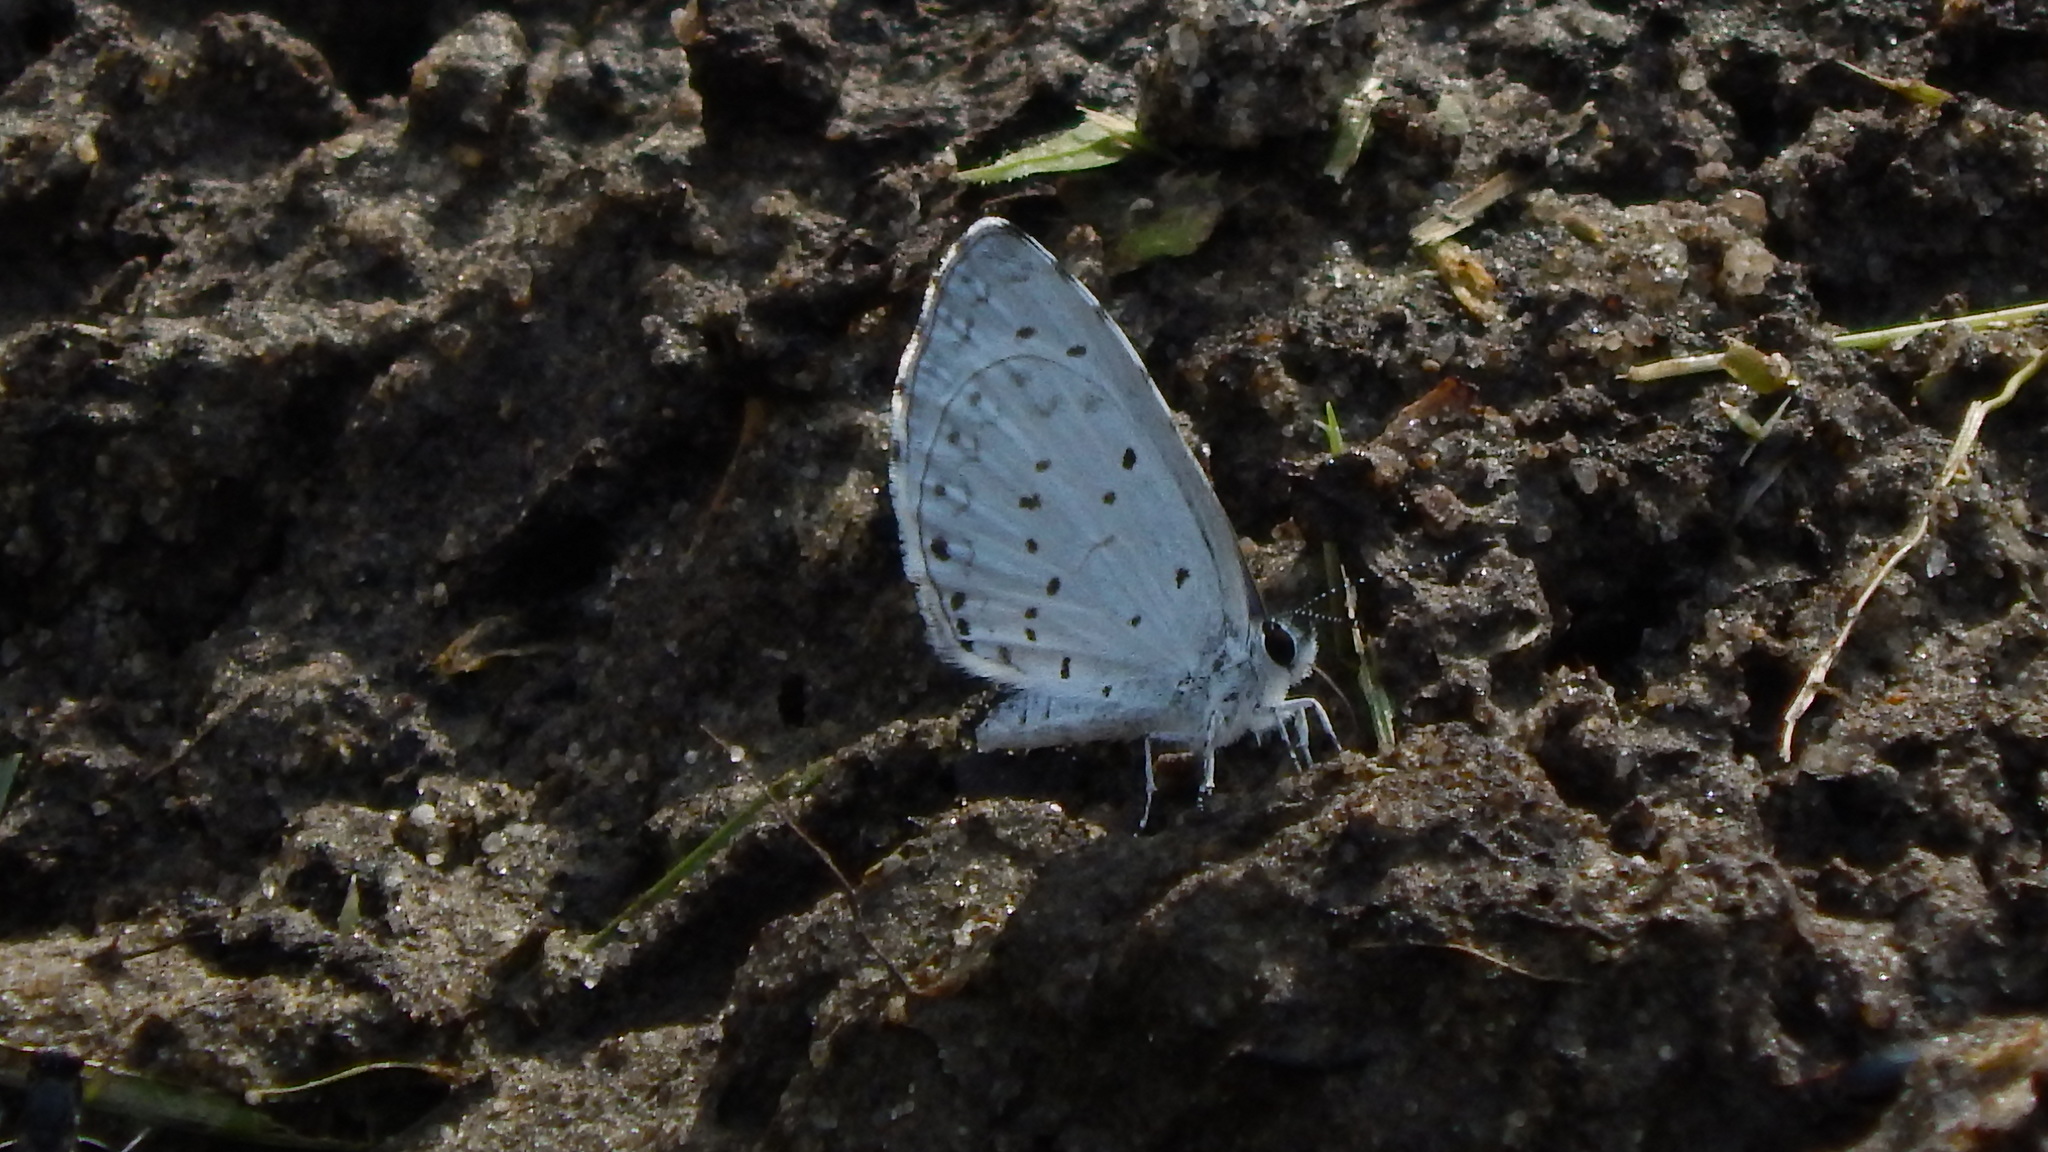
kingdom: Animalia
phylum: Arthropoda
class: Insecta
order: Lepidoptera
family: Lycaenidae
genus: Cyaniris
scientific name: Cyaniris neglecta
